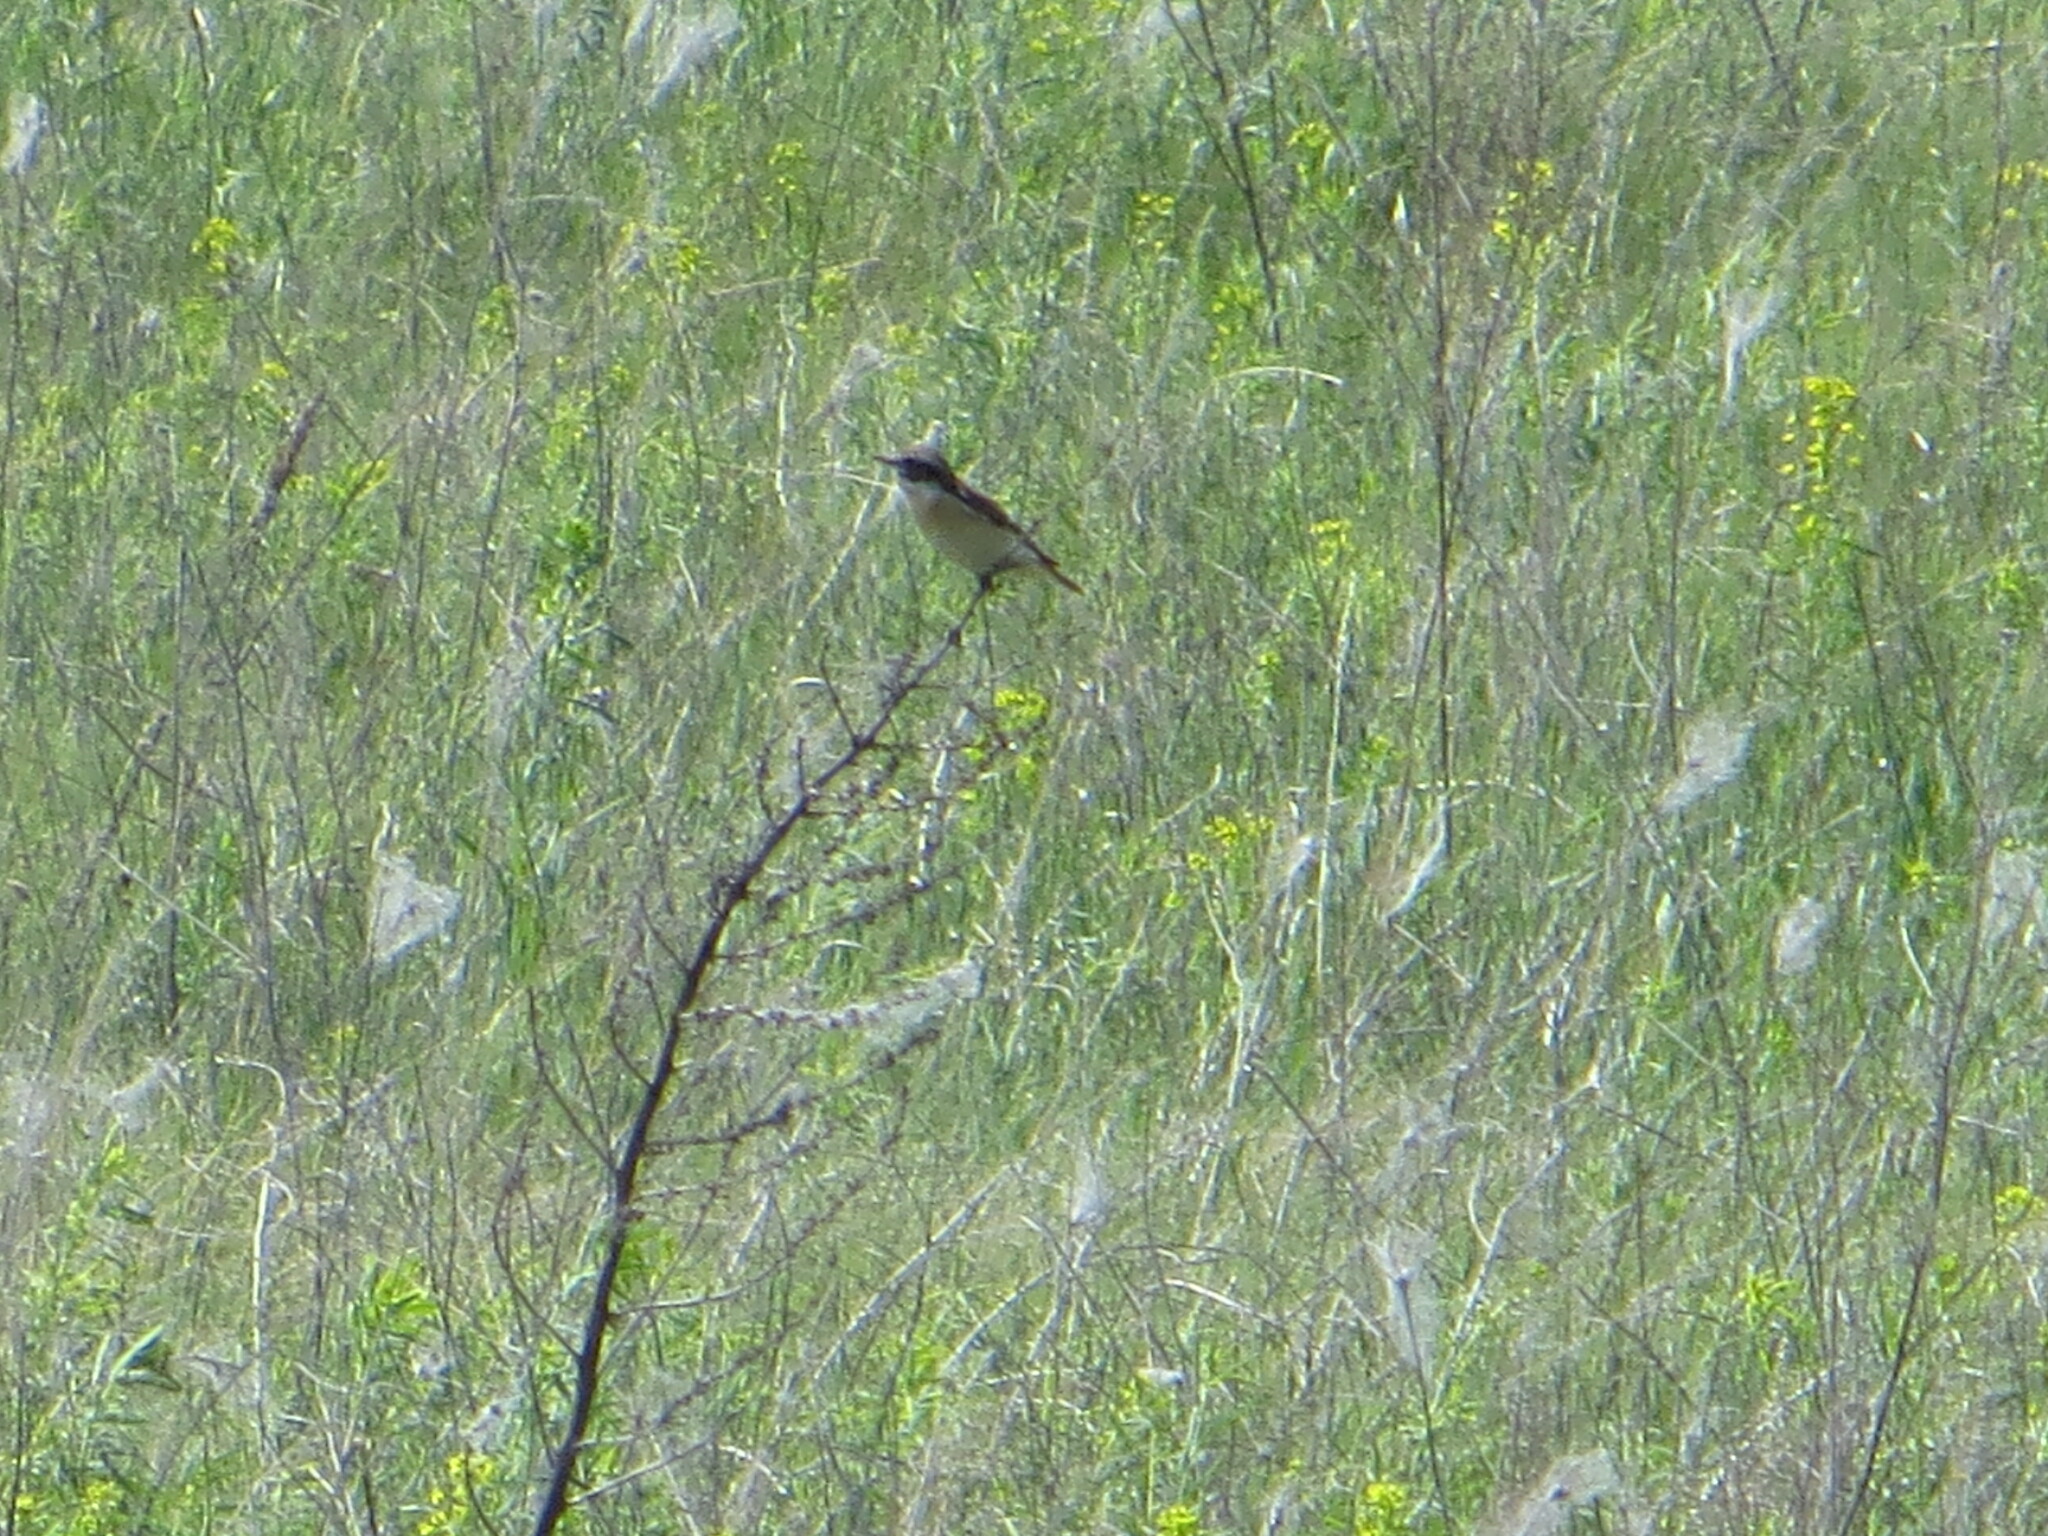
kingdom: Animalia
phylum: Chordata
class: Aves
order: Passeriformes
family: Muscicapidae
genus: Saxicola
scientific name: Saxicola rubetra
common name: Whinchat
